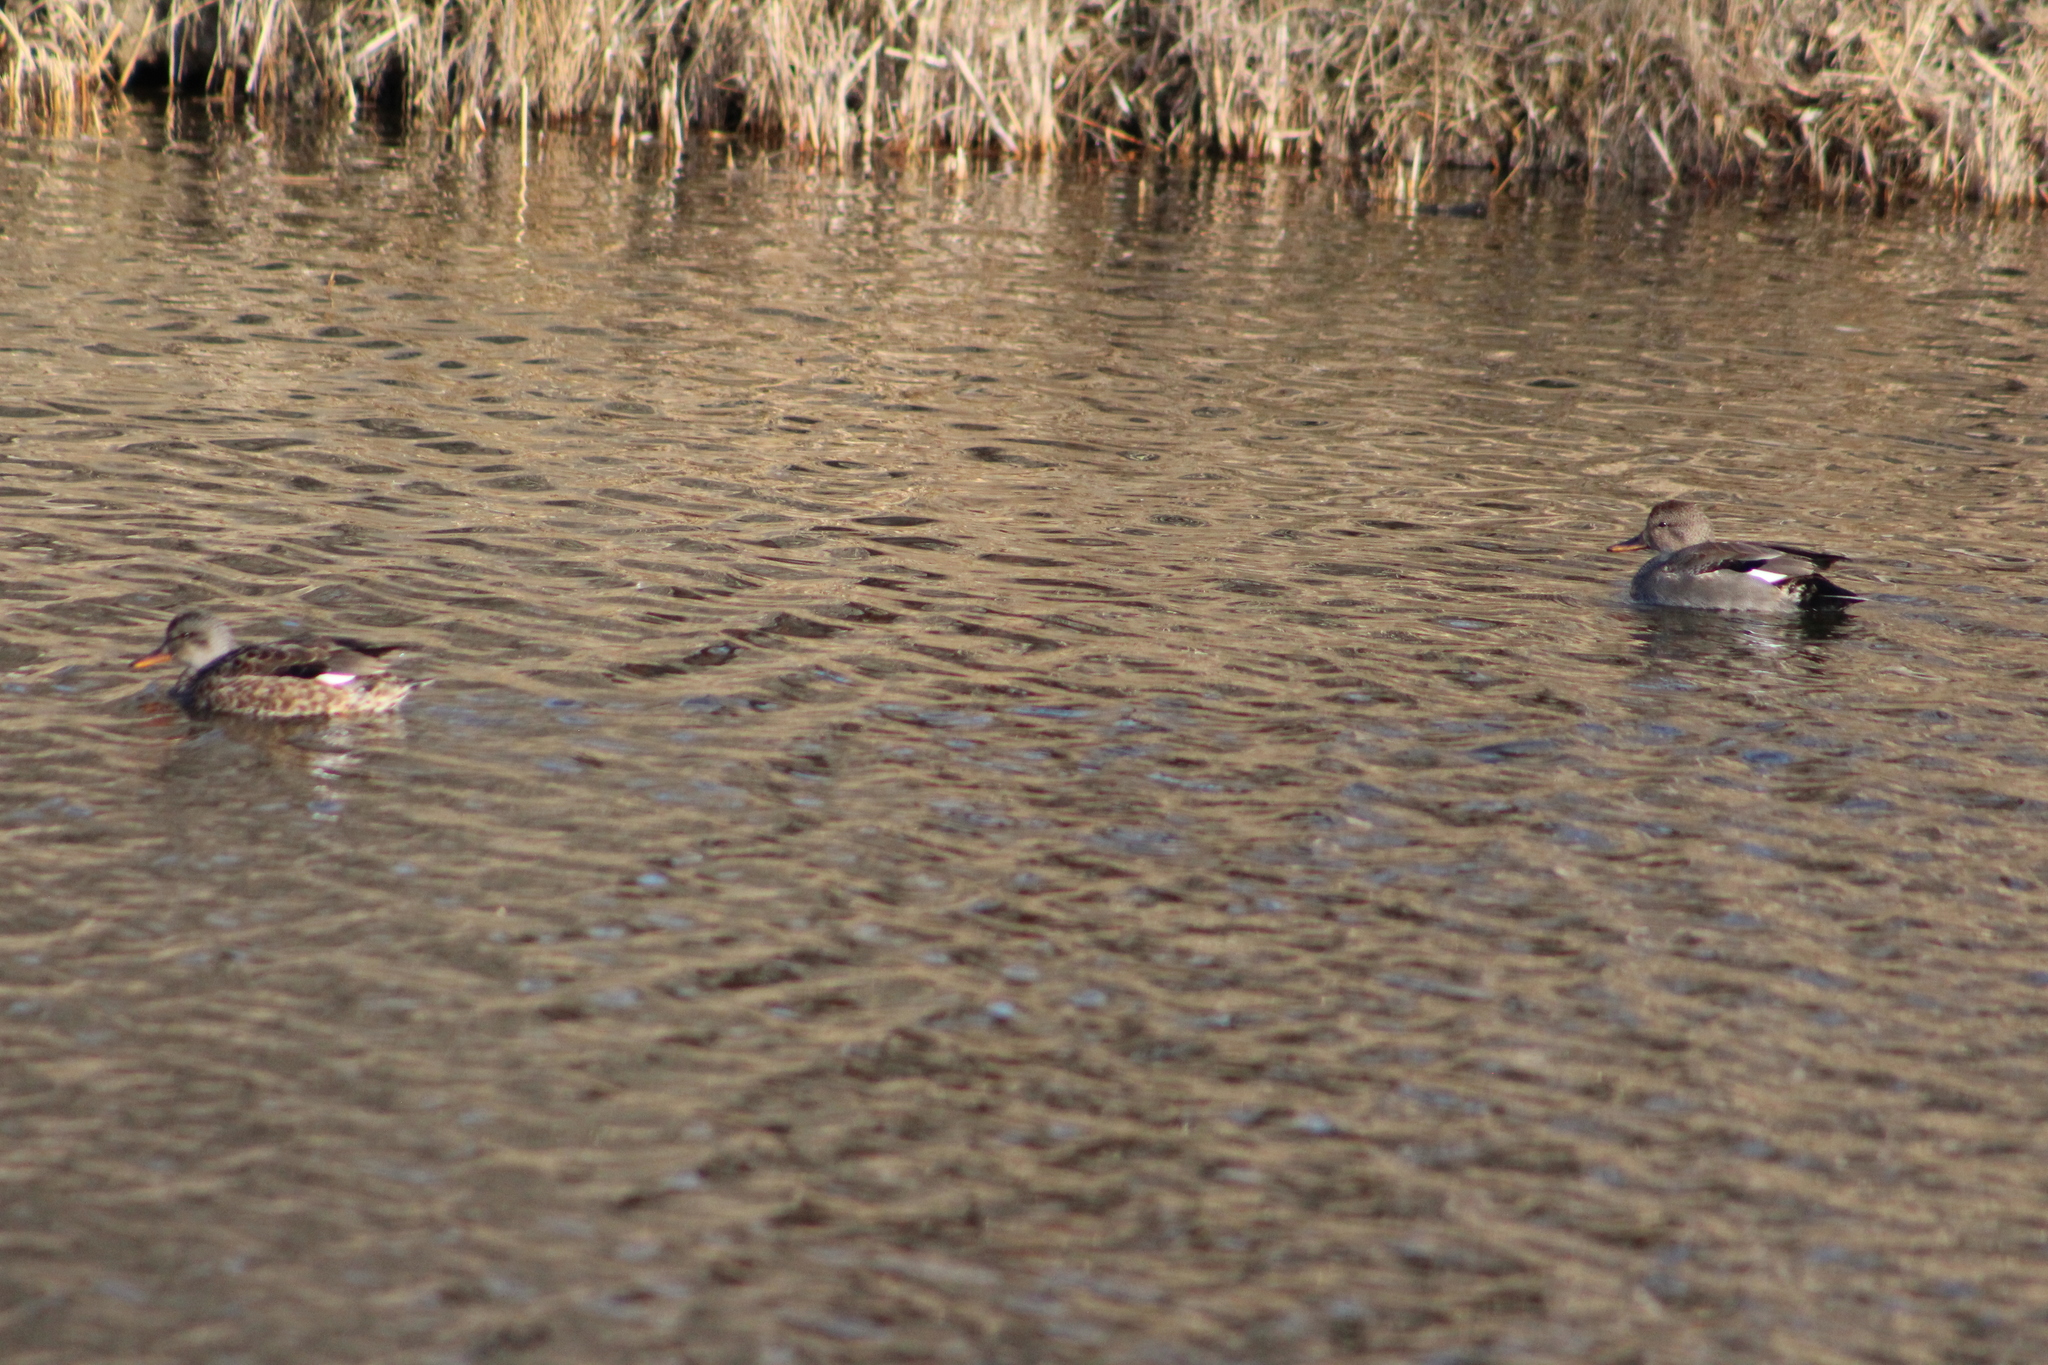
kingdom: Animalia
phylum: Chordata
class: Aves
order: Anseriformes
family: Anatidae
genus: Mareca
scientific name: Mareca strepera
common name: Gadwall
